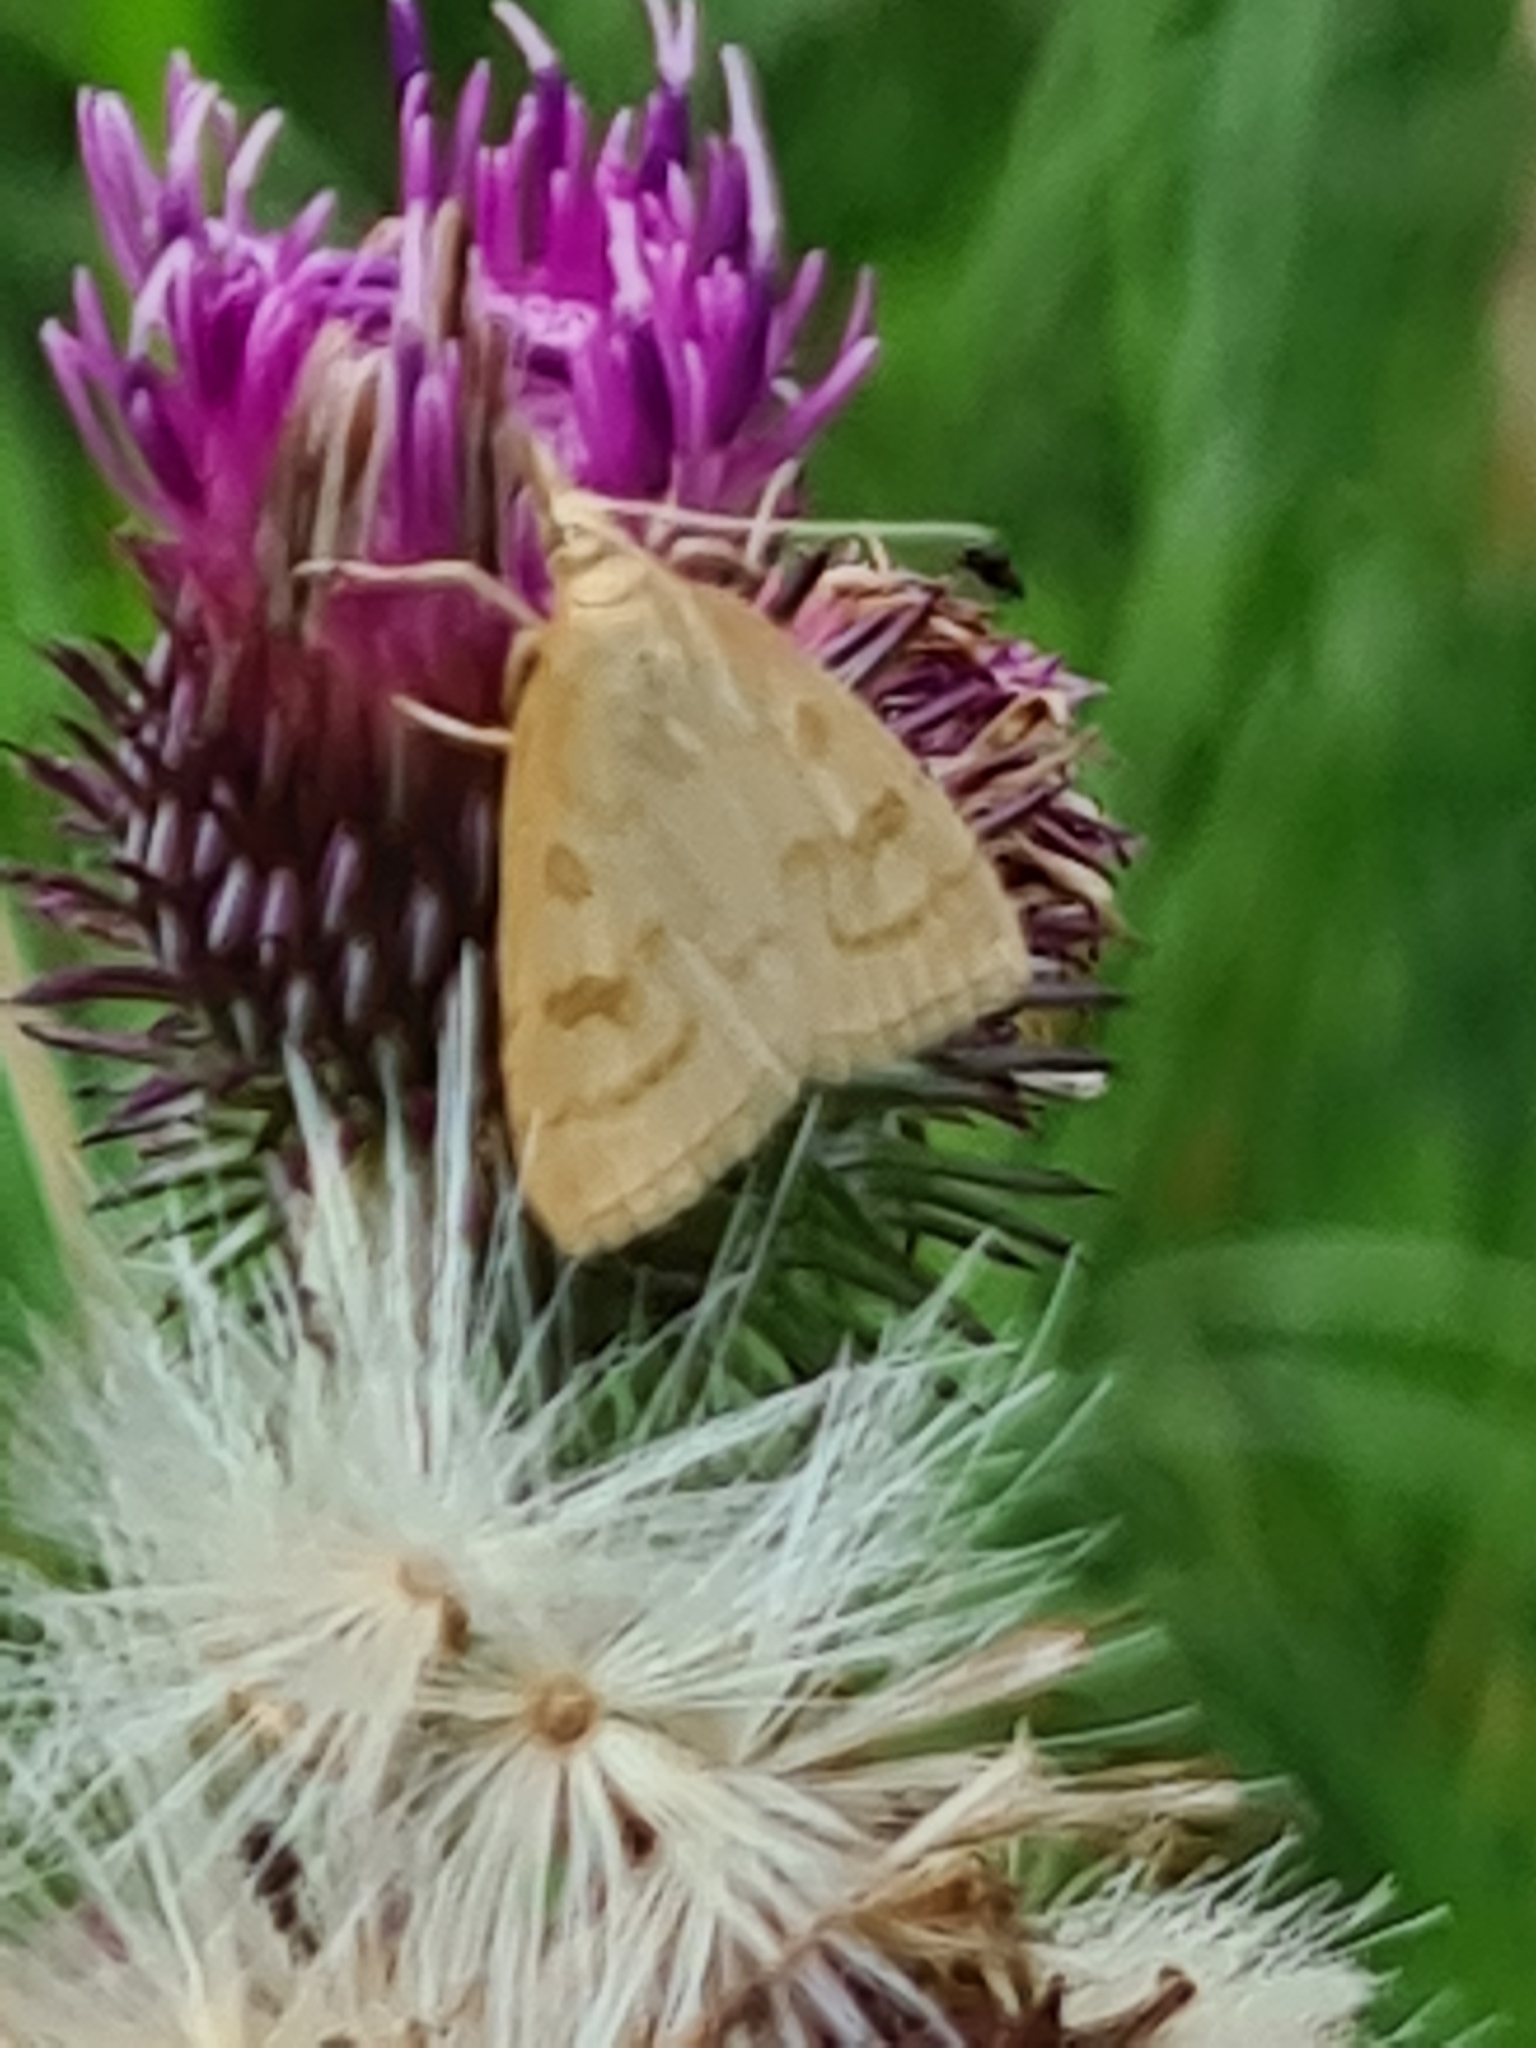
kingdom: Animalia
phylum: Arthropoda
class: Insecta
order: Lepidoptera
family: Crambidae
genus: Udea
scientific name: Udea lutealis
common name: Pale straw pearl
